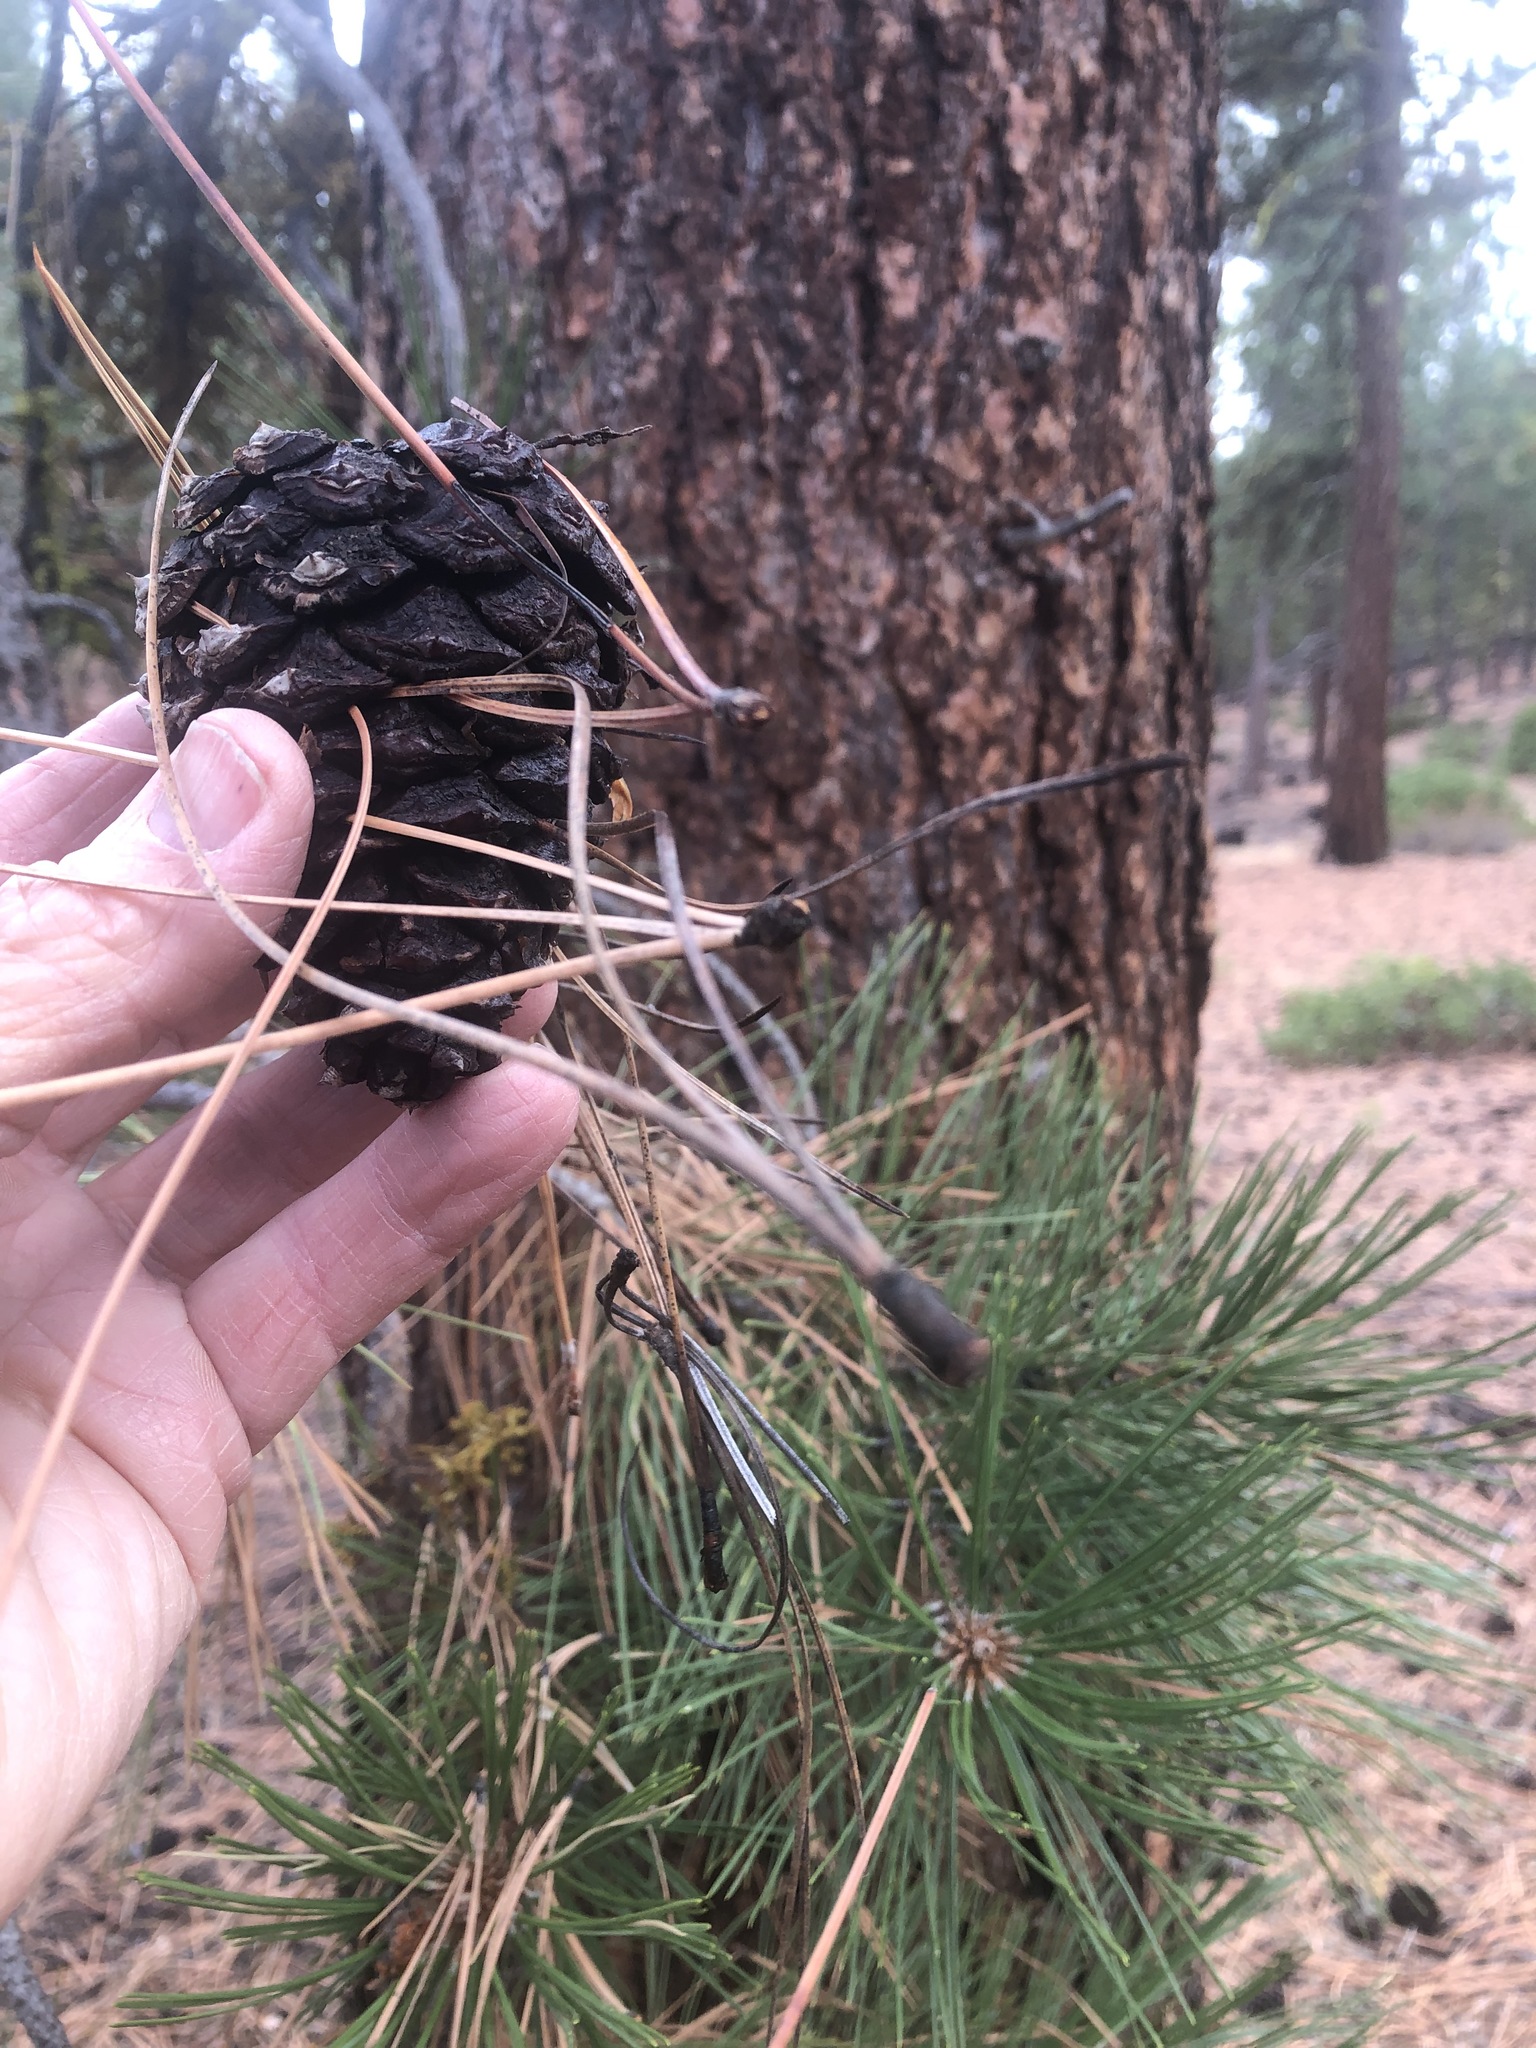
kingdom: Plantae
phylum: Tracheophyta
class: Pinopsida
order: Pinales
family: Pinaceae
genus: Pinus
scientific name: Pinus ponderosa
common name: Western yellow-pine
